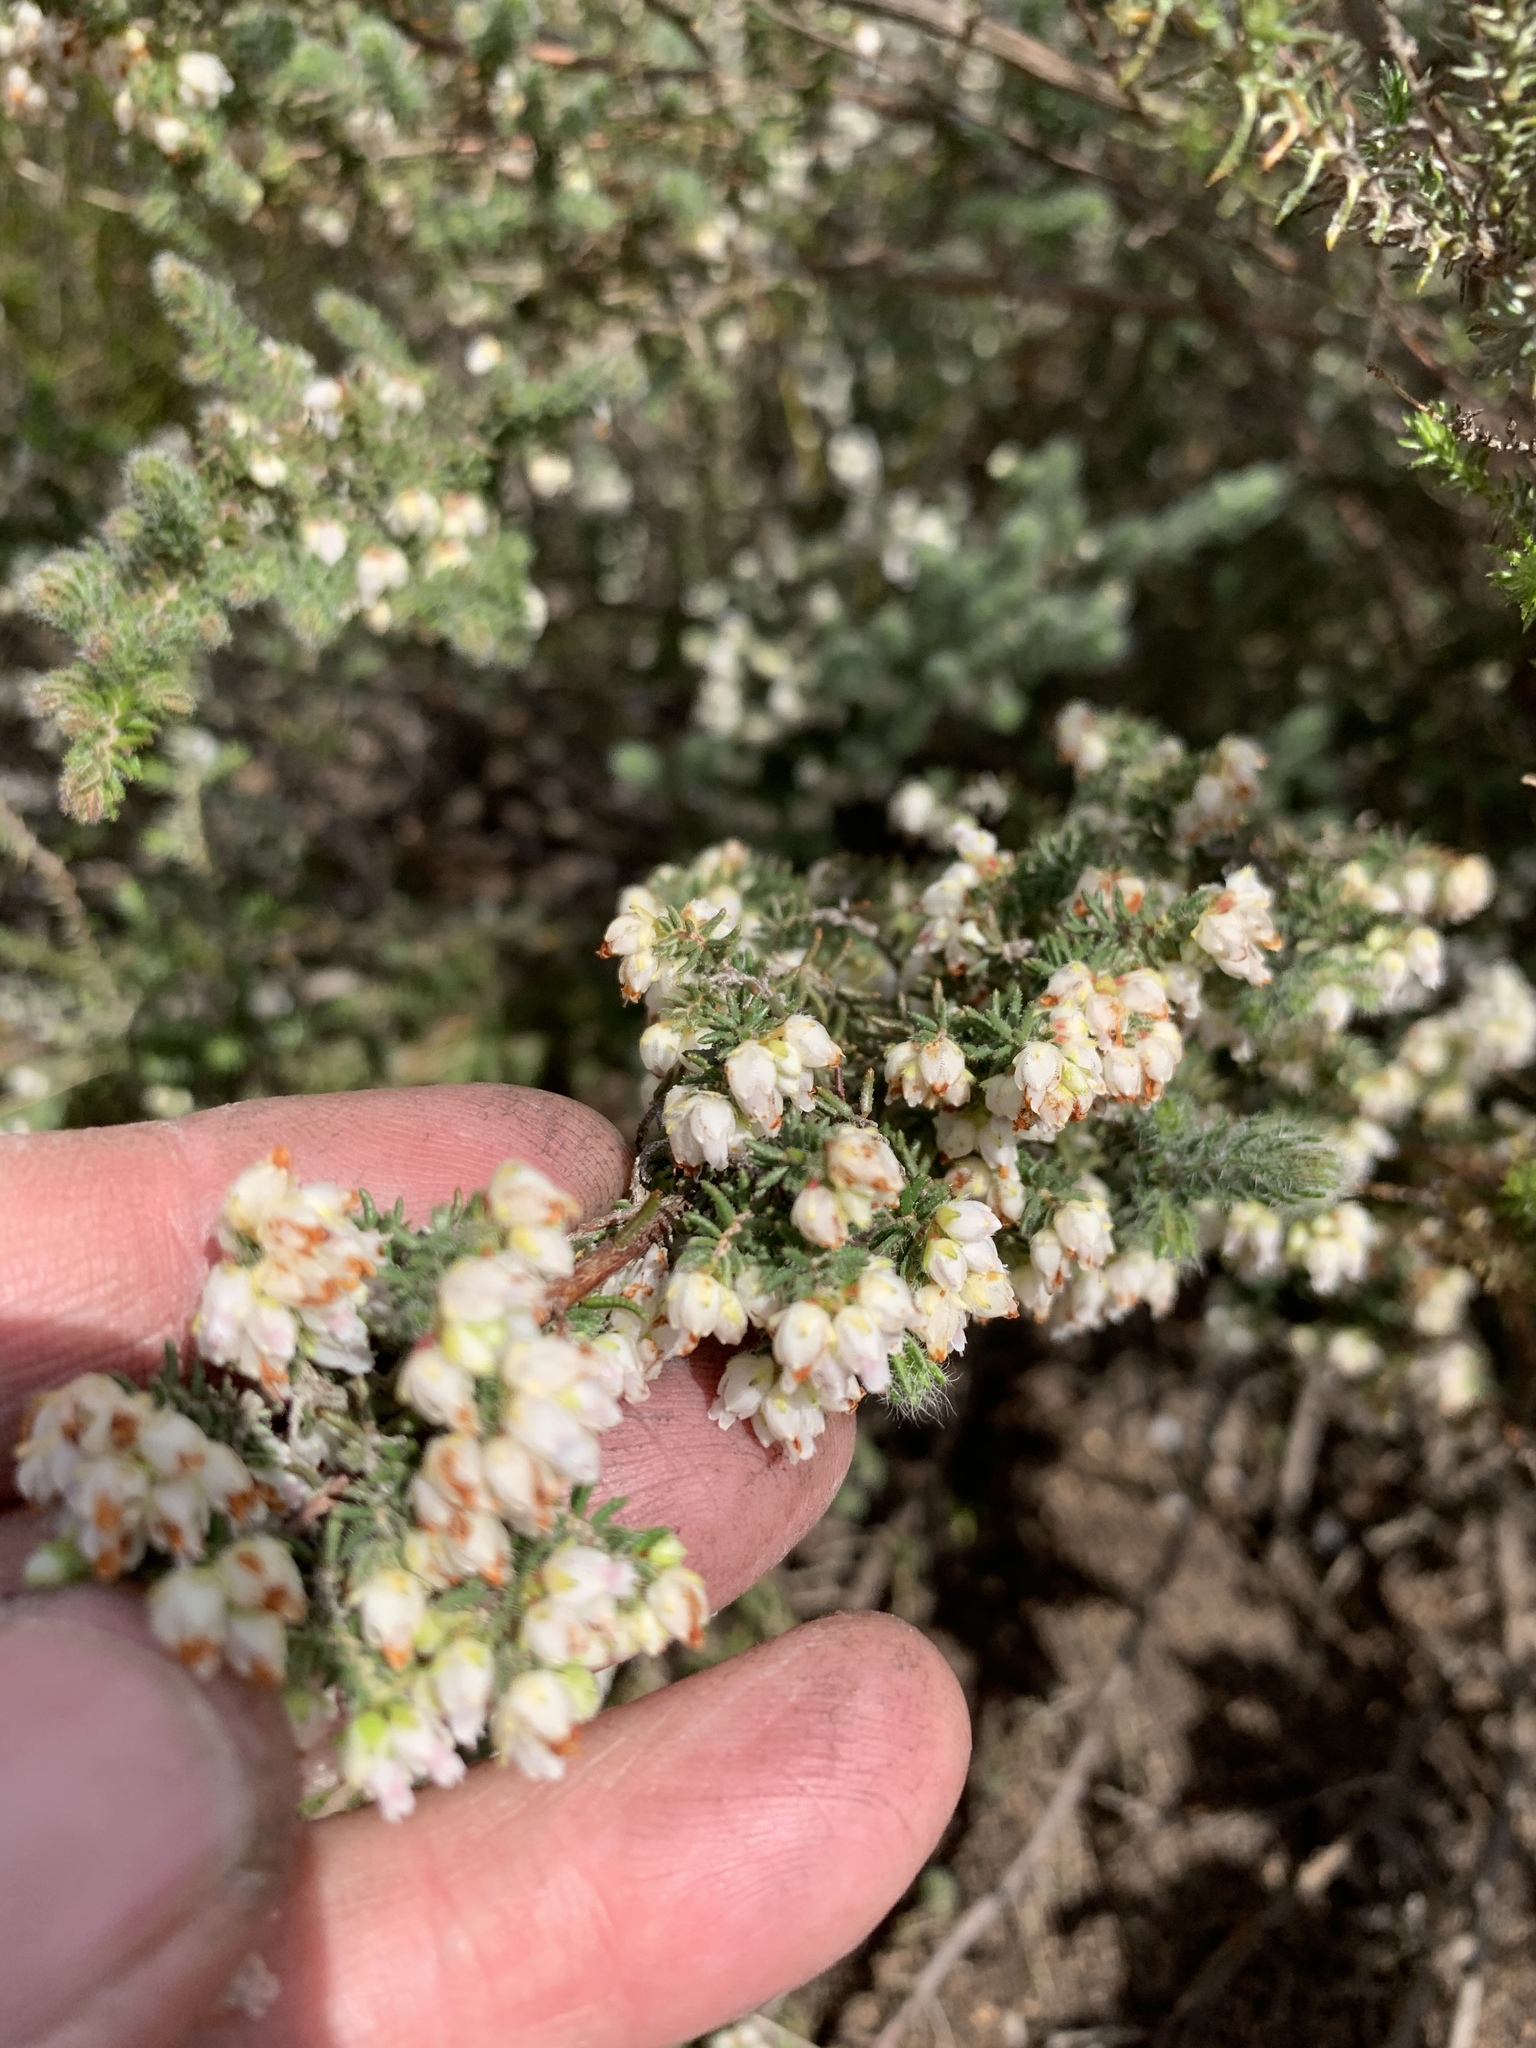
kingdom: Plantae
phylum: Tracheophyta
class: Magnoliopsida
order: Ericales
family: Ericaceae
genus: Erica
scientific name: Erica totta
